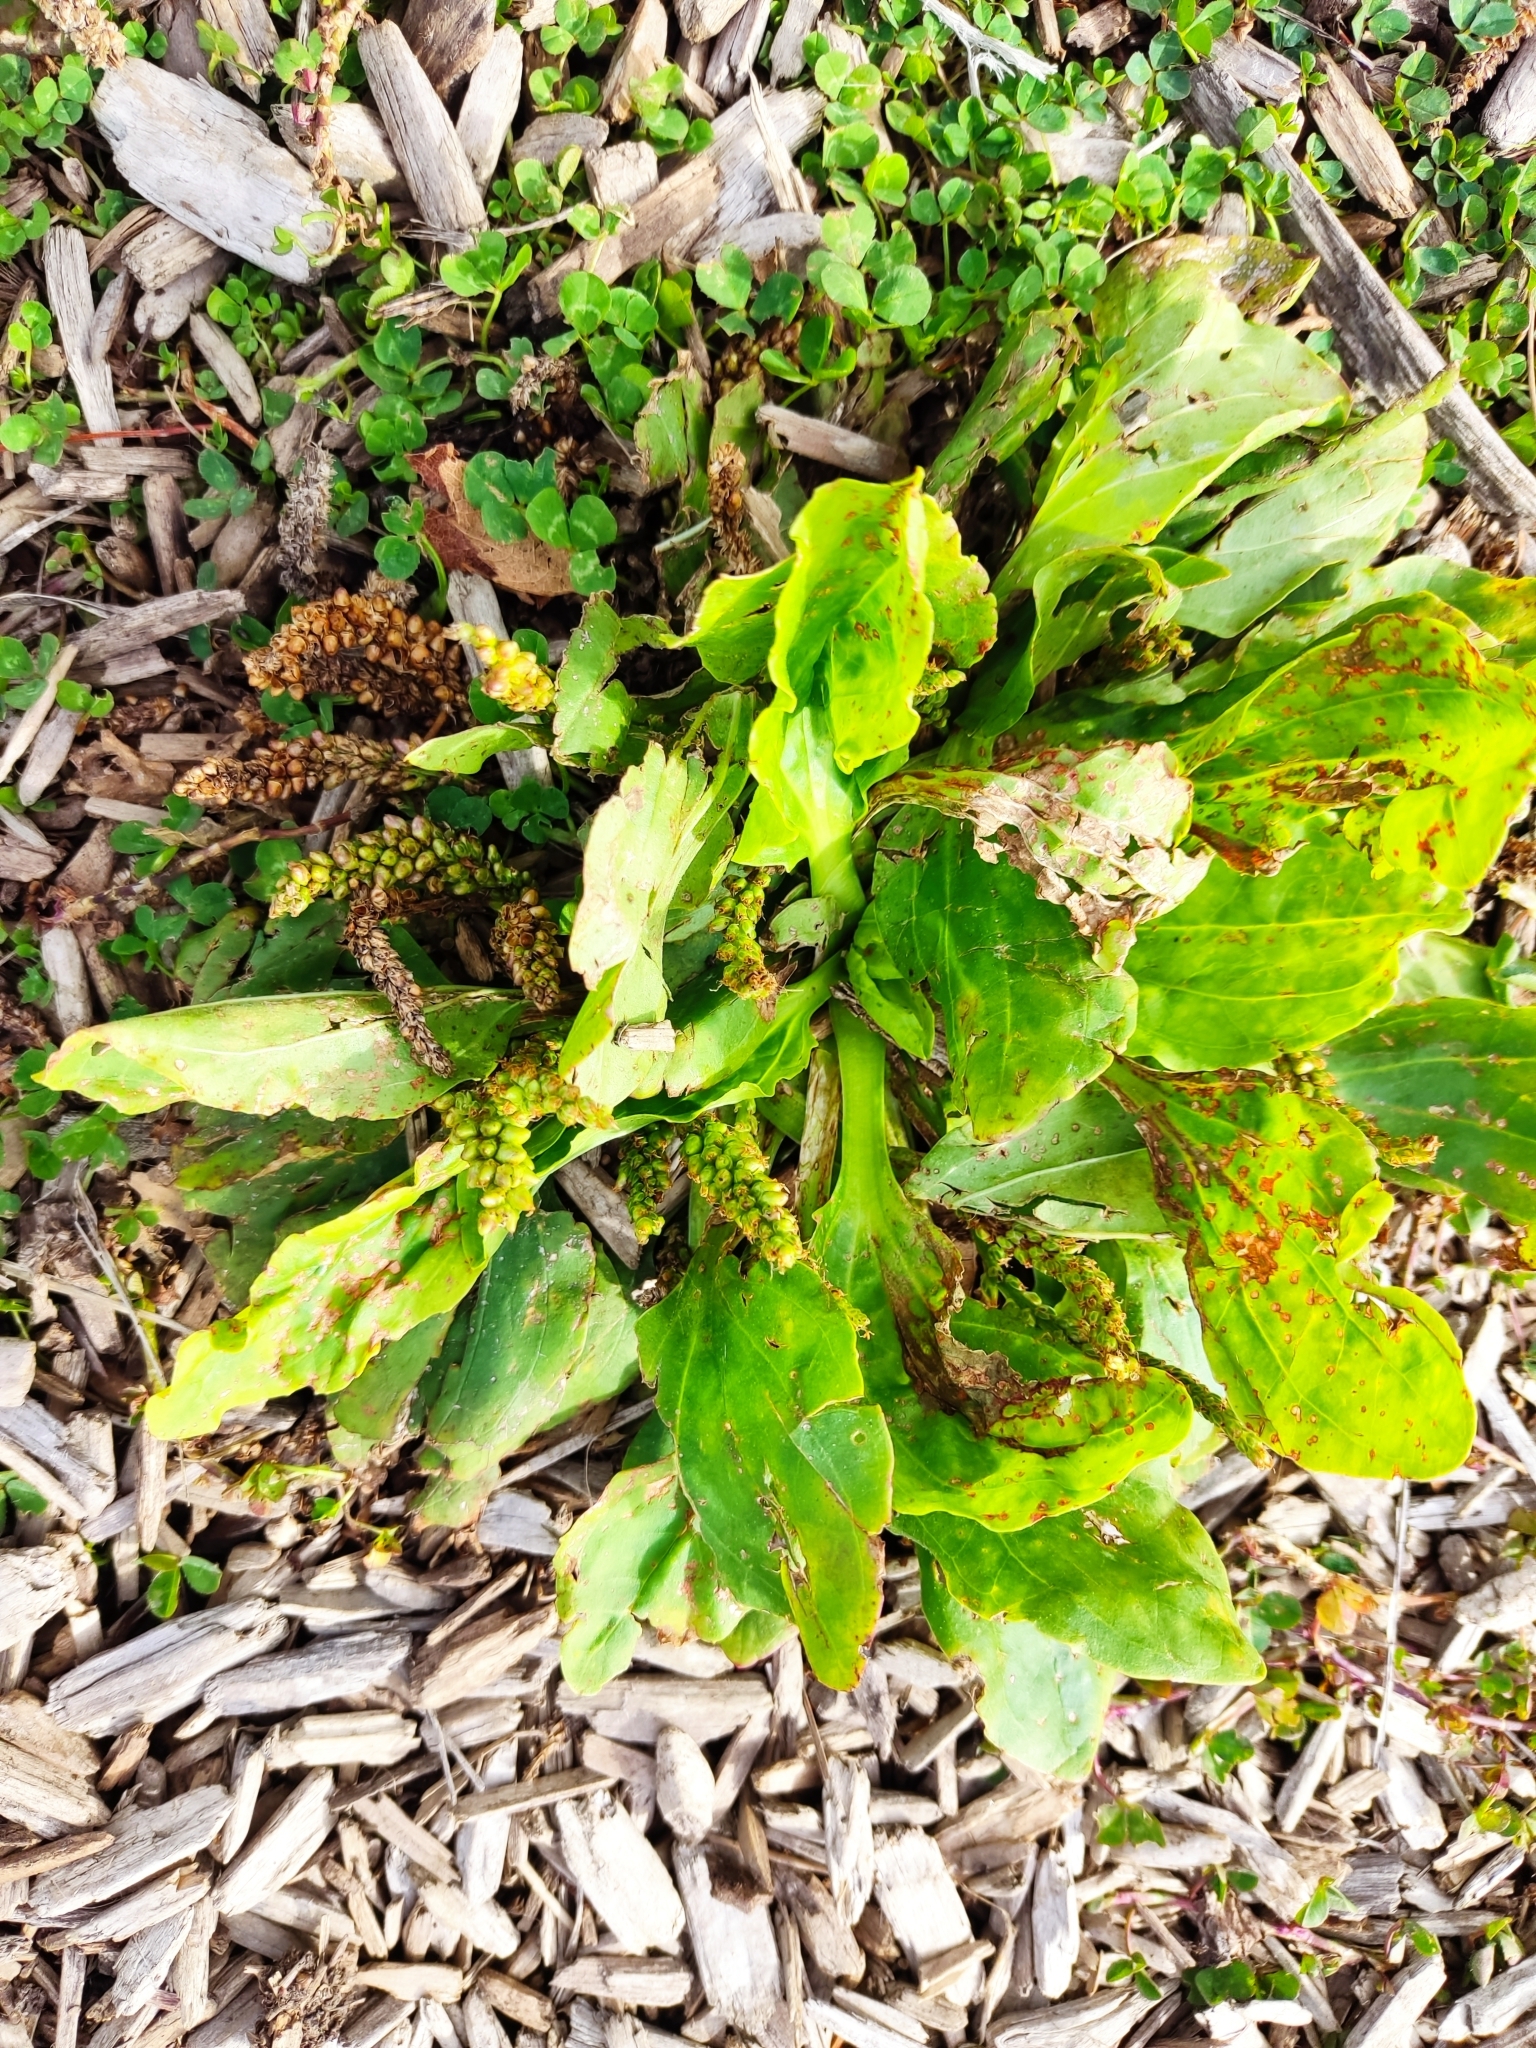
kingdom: Plantae
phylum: Tracheophyta
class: Magnoliopsida
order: Lamiales
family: Plantaginaceae
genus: Plantago
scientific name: Plantago major
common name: Common plantain
